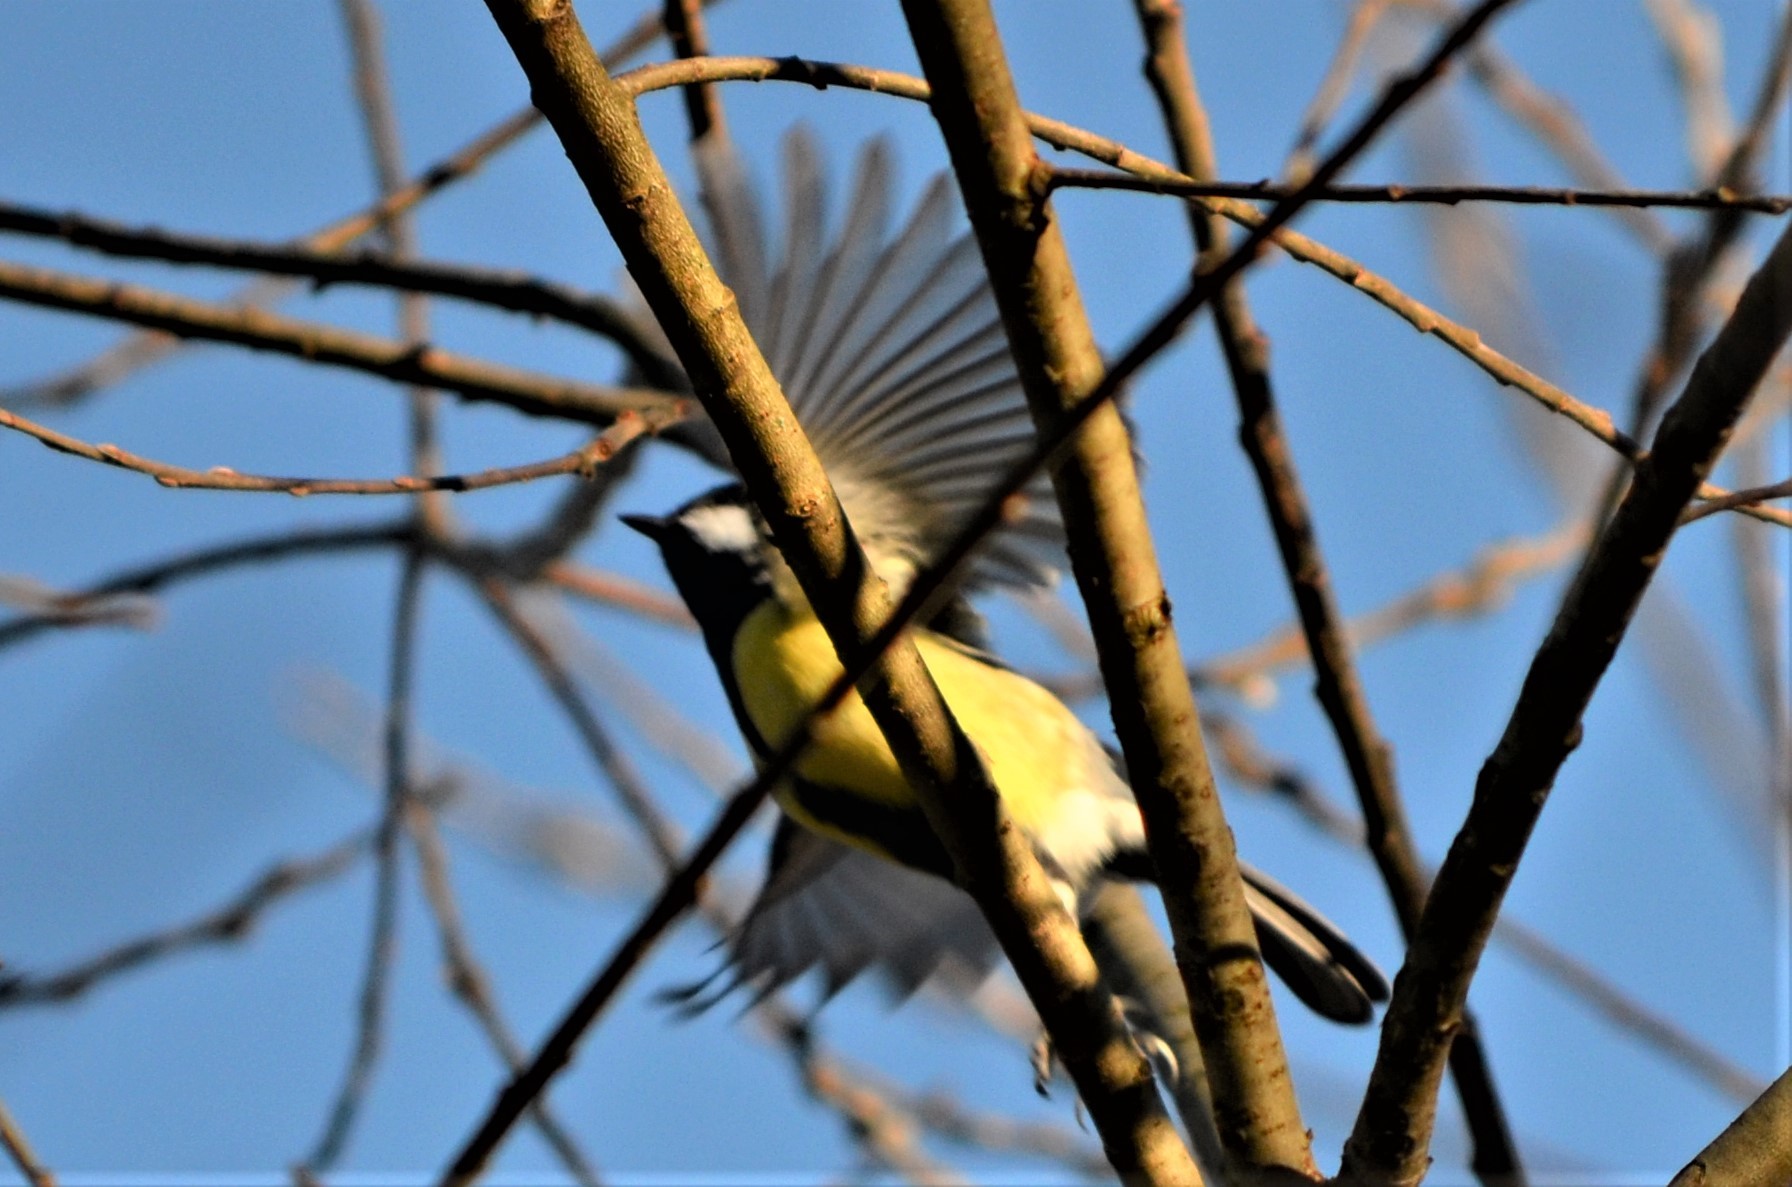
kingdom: Animalia
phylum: Chordata
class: Aves
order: Passeriformes
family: Paridae
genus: Parus
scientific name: Parus major
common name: Great tit
